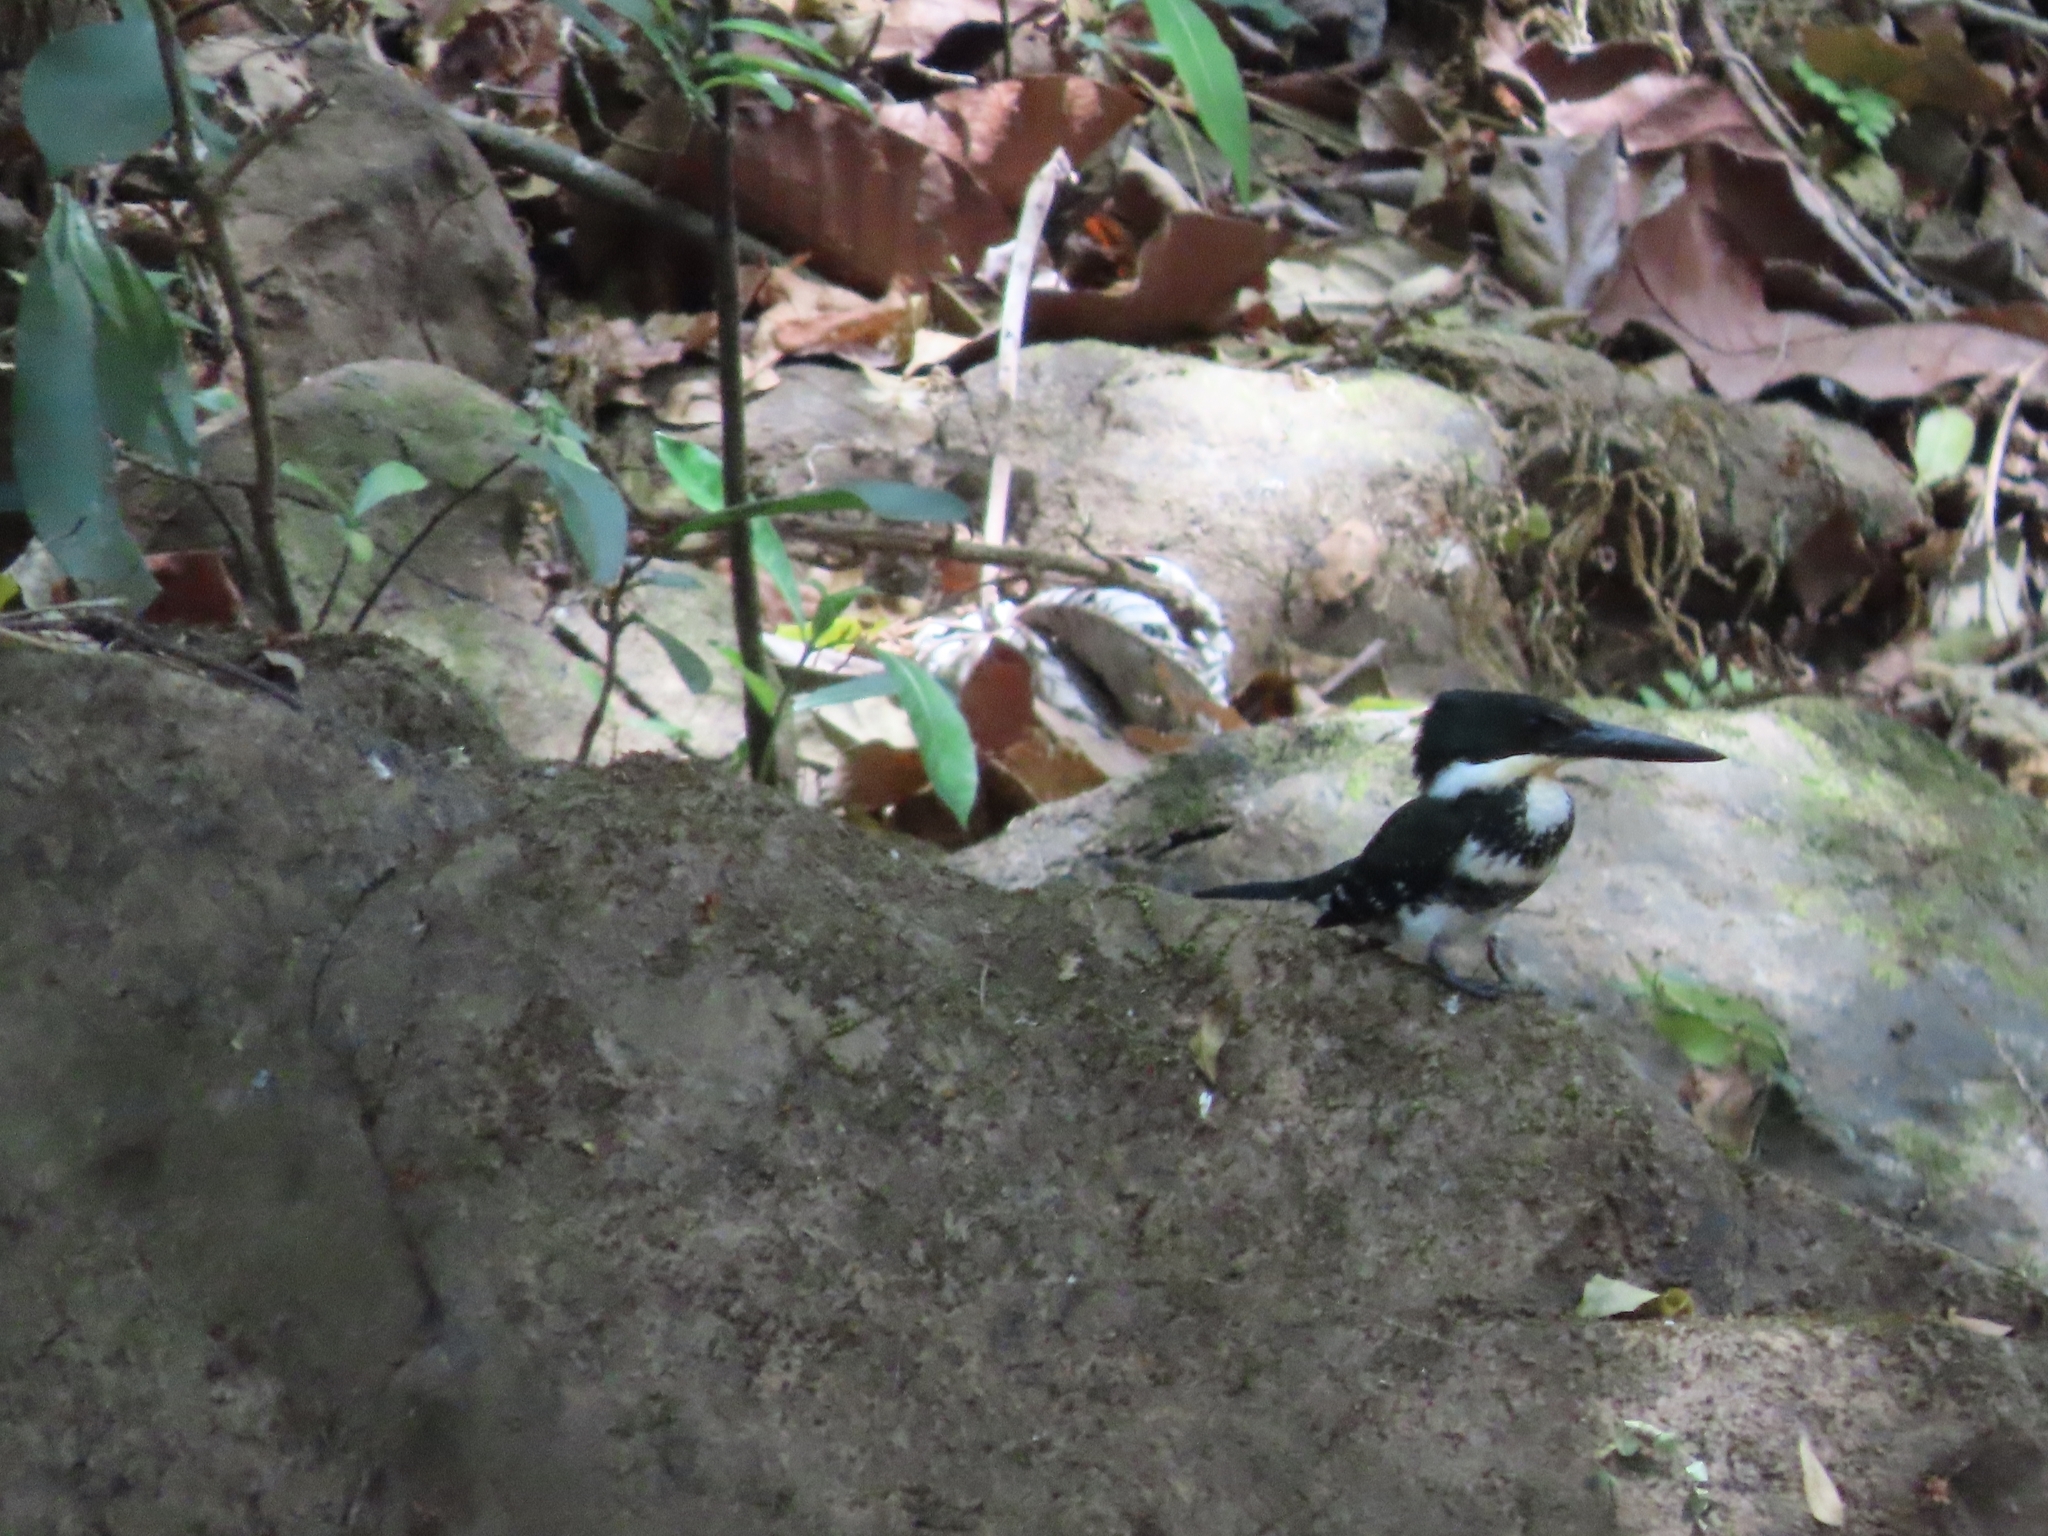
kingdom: Animalia
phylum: Chordata
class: Aves
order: Coraciiformes
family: Alcedinidae
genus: Chloroceryle
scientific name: Chloroceryle americana
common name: Green kingfisher
